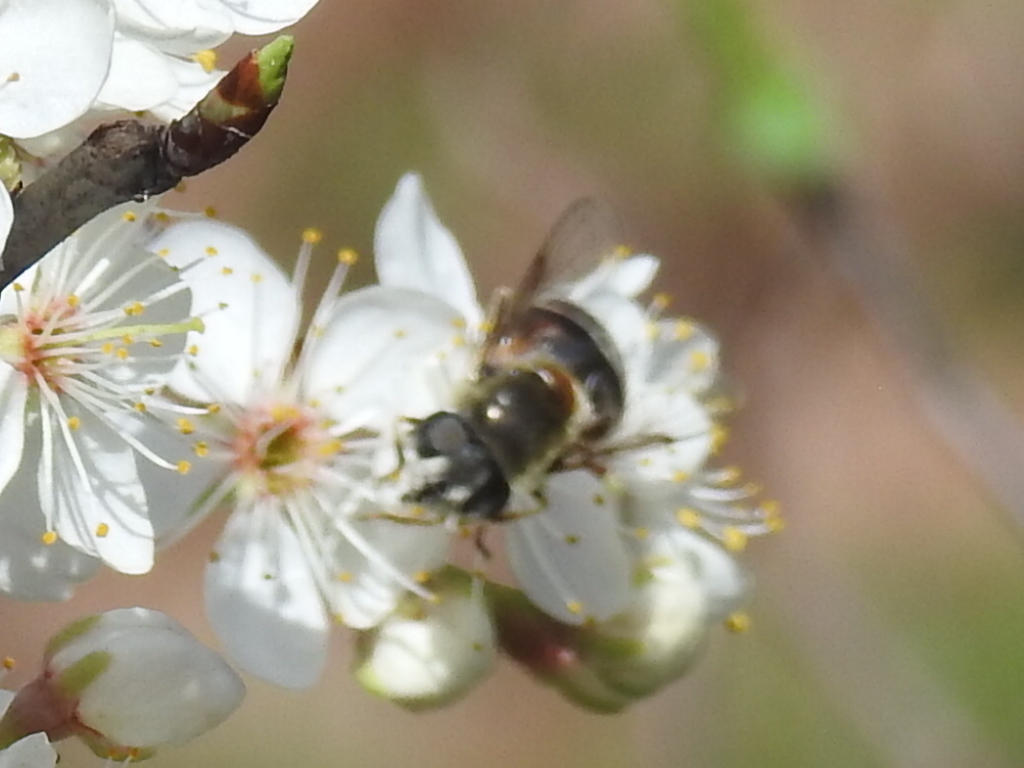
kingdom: Animalia
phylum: Arthropoda
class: Insecta
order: Diptera
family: Syrphidae
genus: Eristalis
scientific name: Eristalis stipator
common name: Yellow-shouldered drone fly
